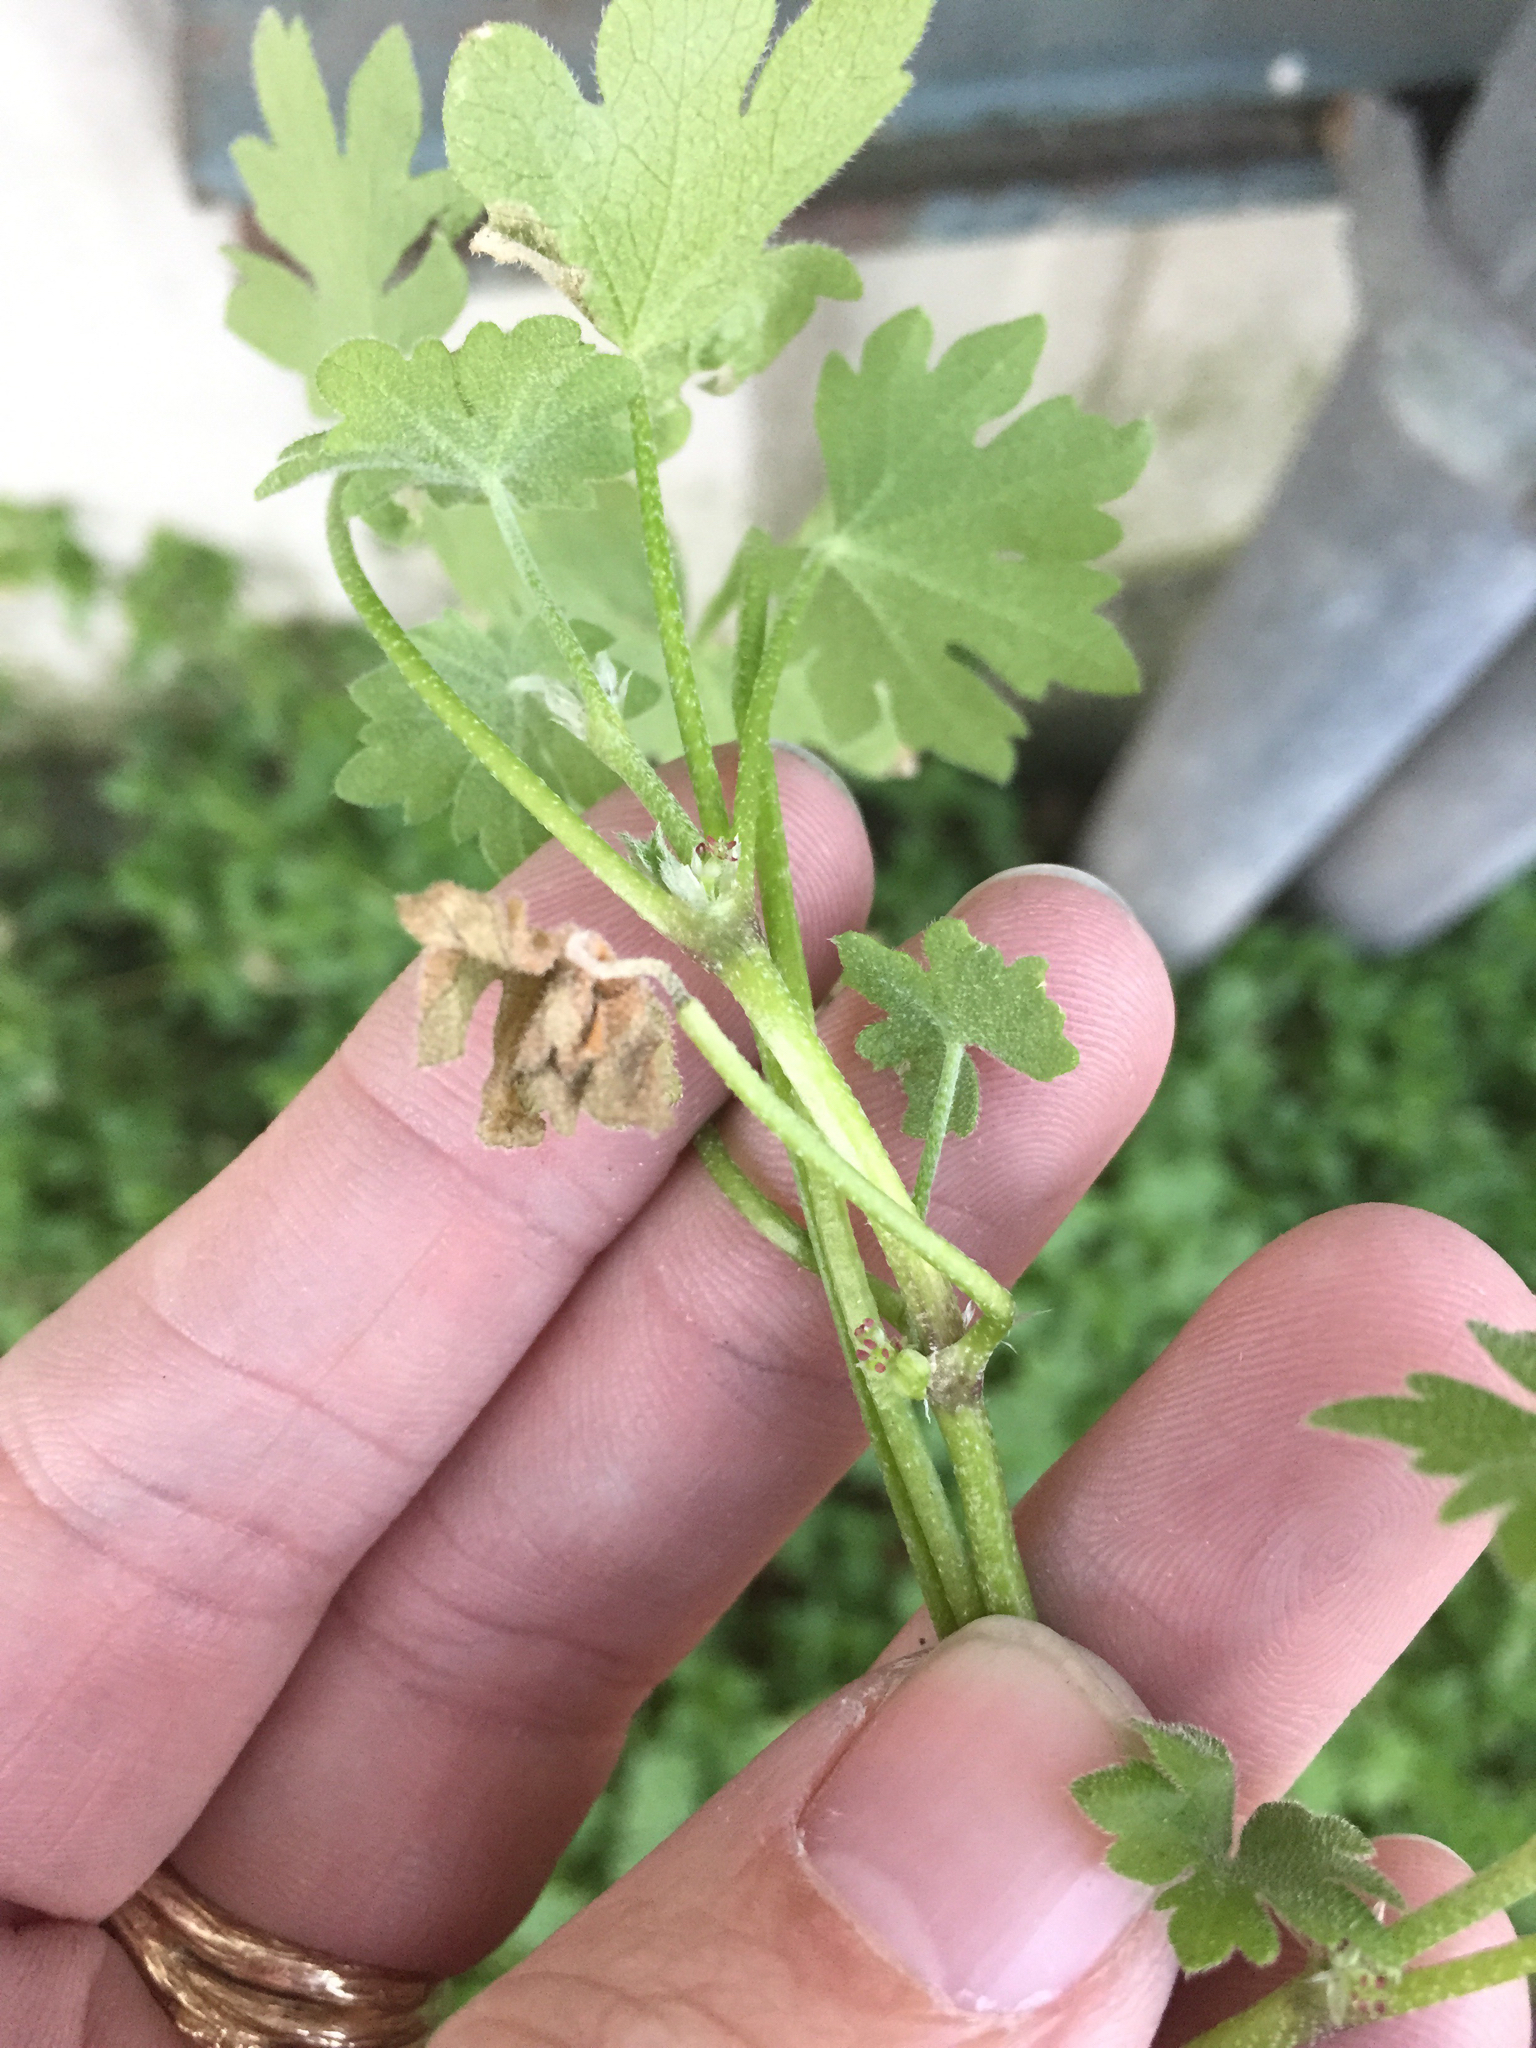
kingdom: Plantae
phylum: Tracheophyta
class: Magnoliopsida
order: Apiales
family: Apiaceae
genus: Bowlesia
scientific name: Bowlesia incana
